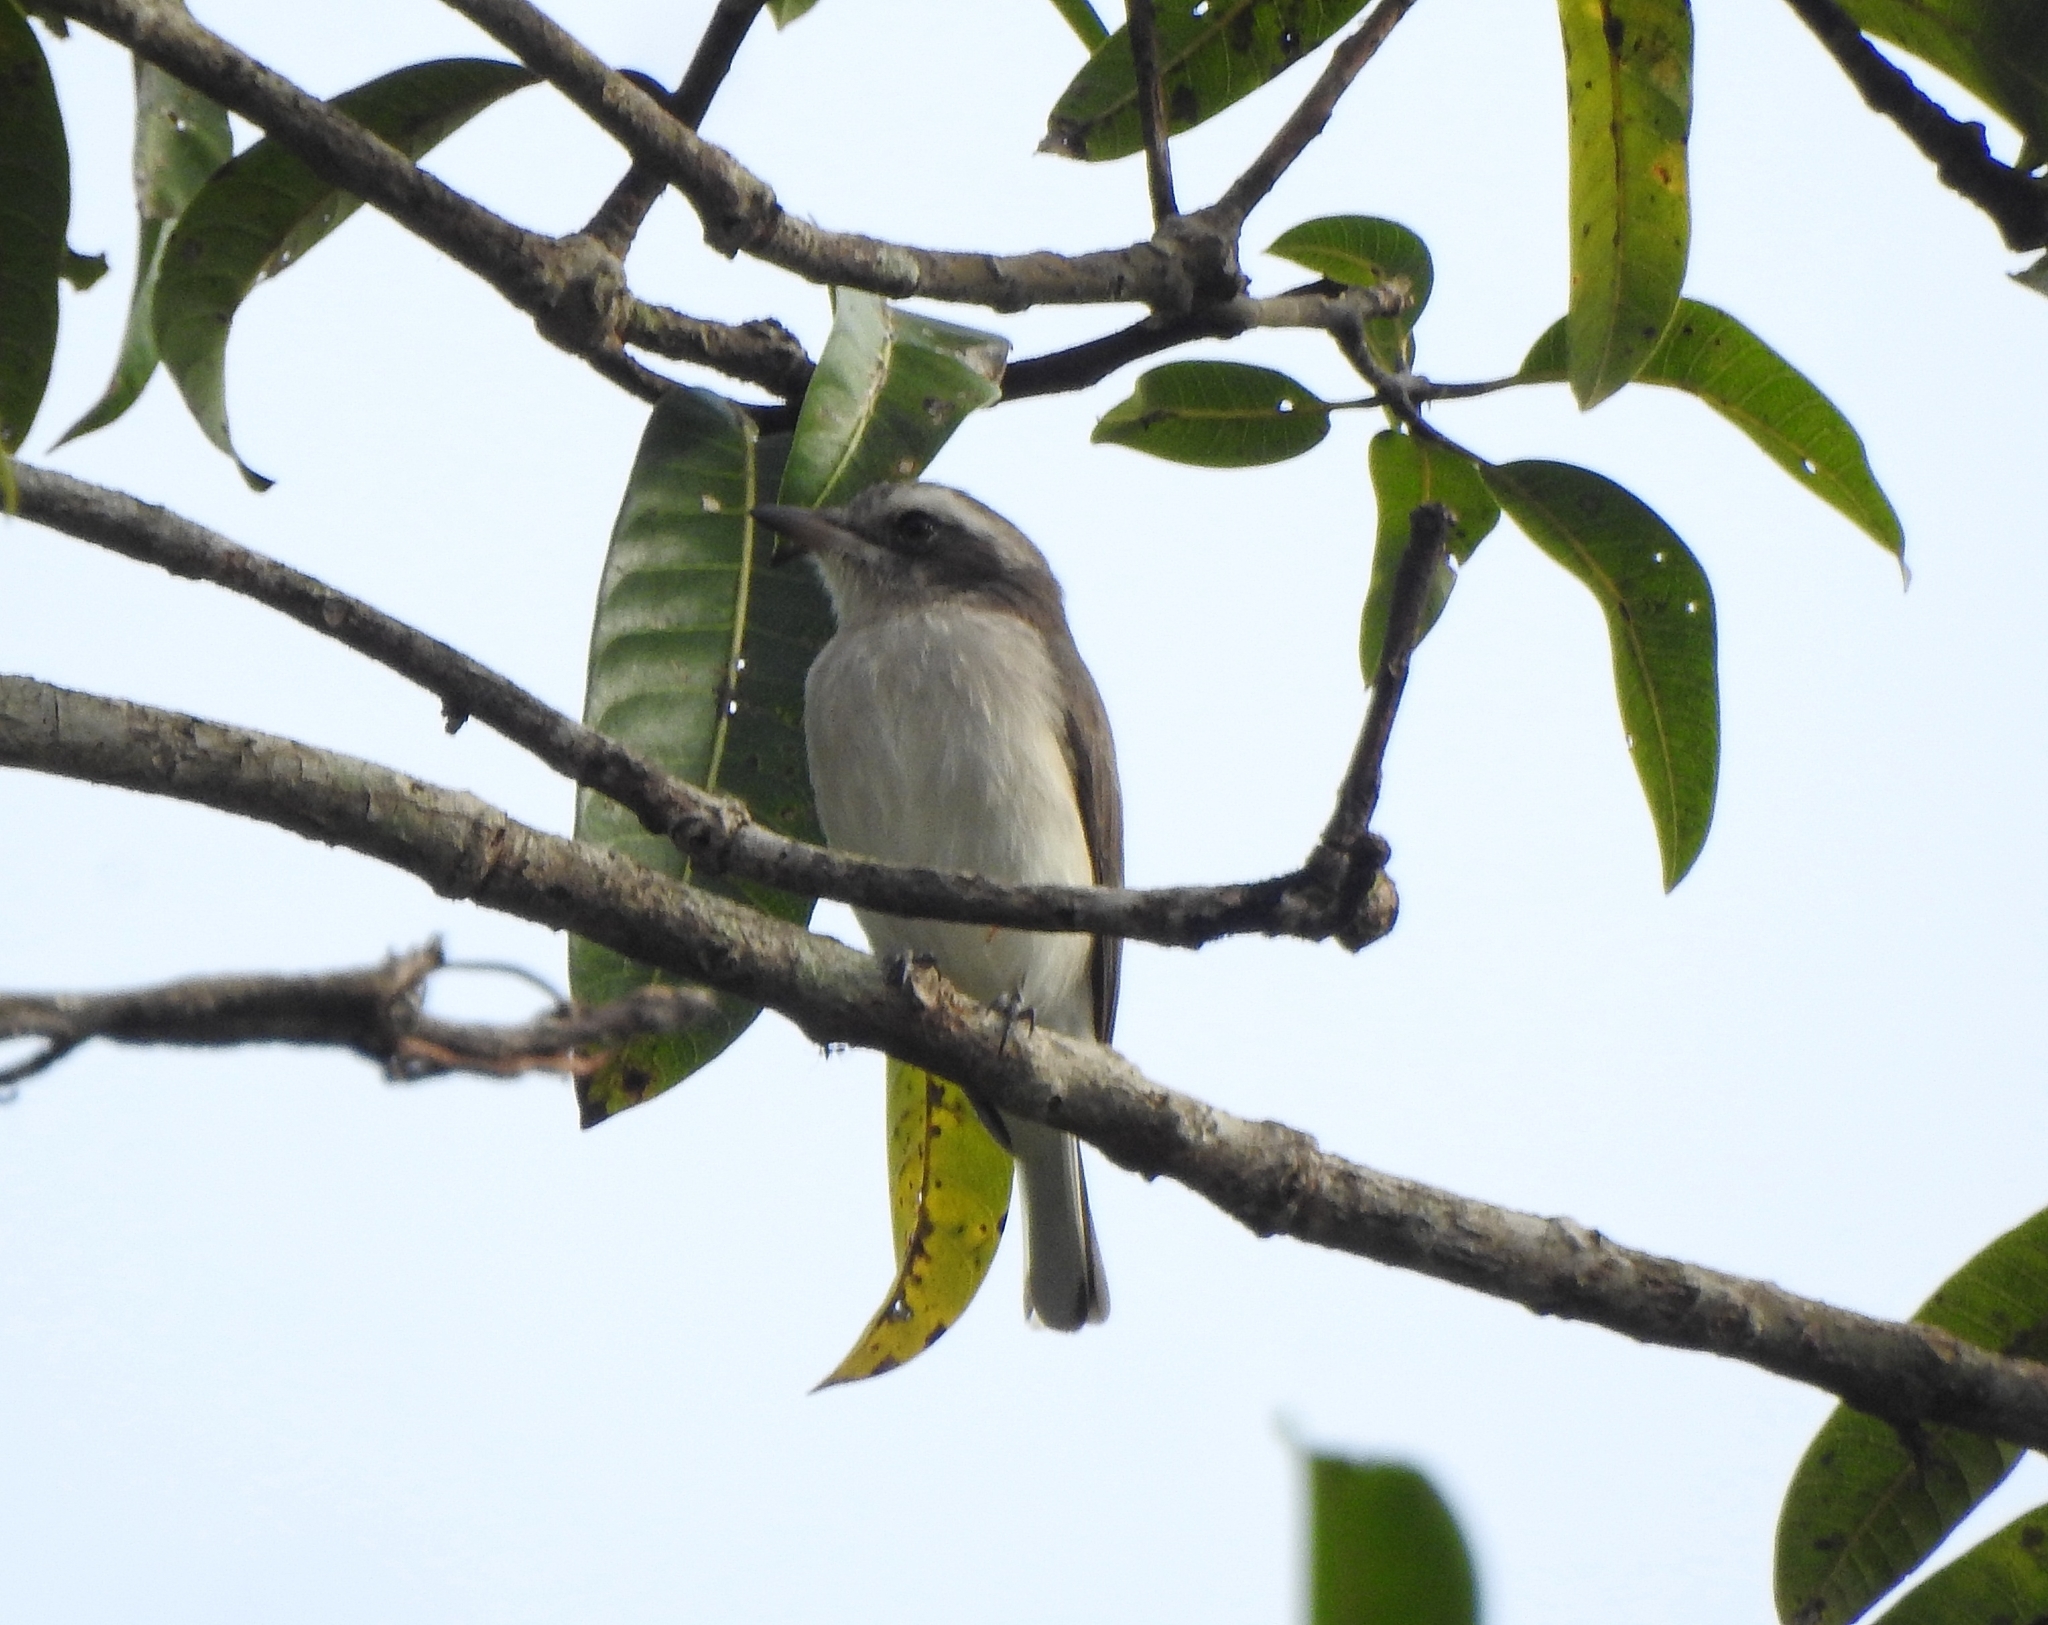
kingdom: Animalia
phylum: Chordata
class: Aves
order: Passeriformes
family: Tephrodornithidae
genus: Tephrodornis
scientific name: Tephrodornis pondicerianus
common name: Common woodshrike
